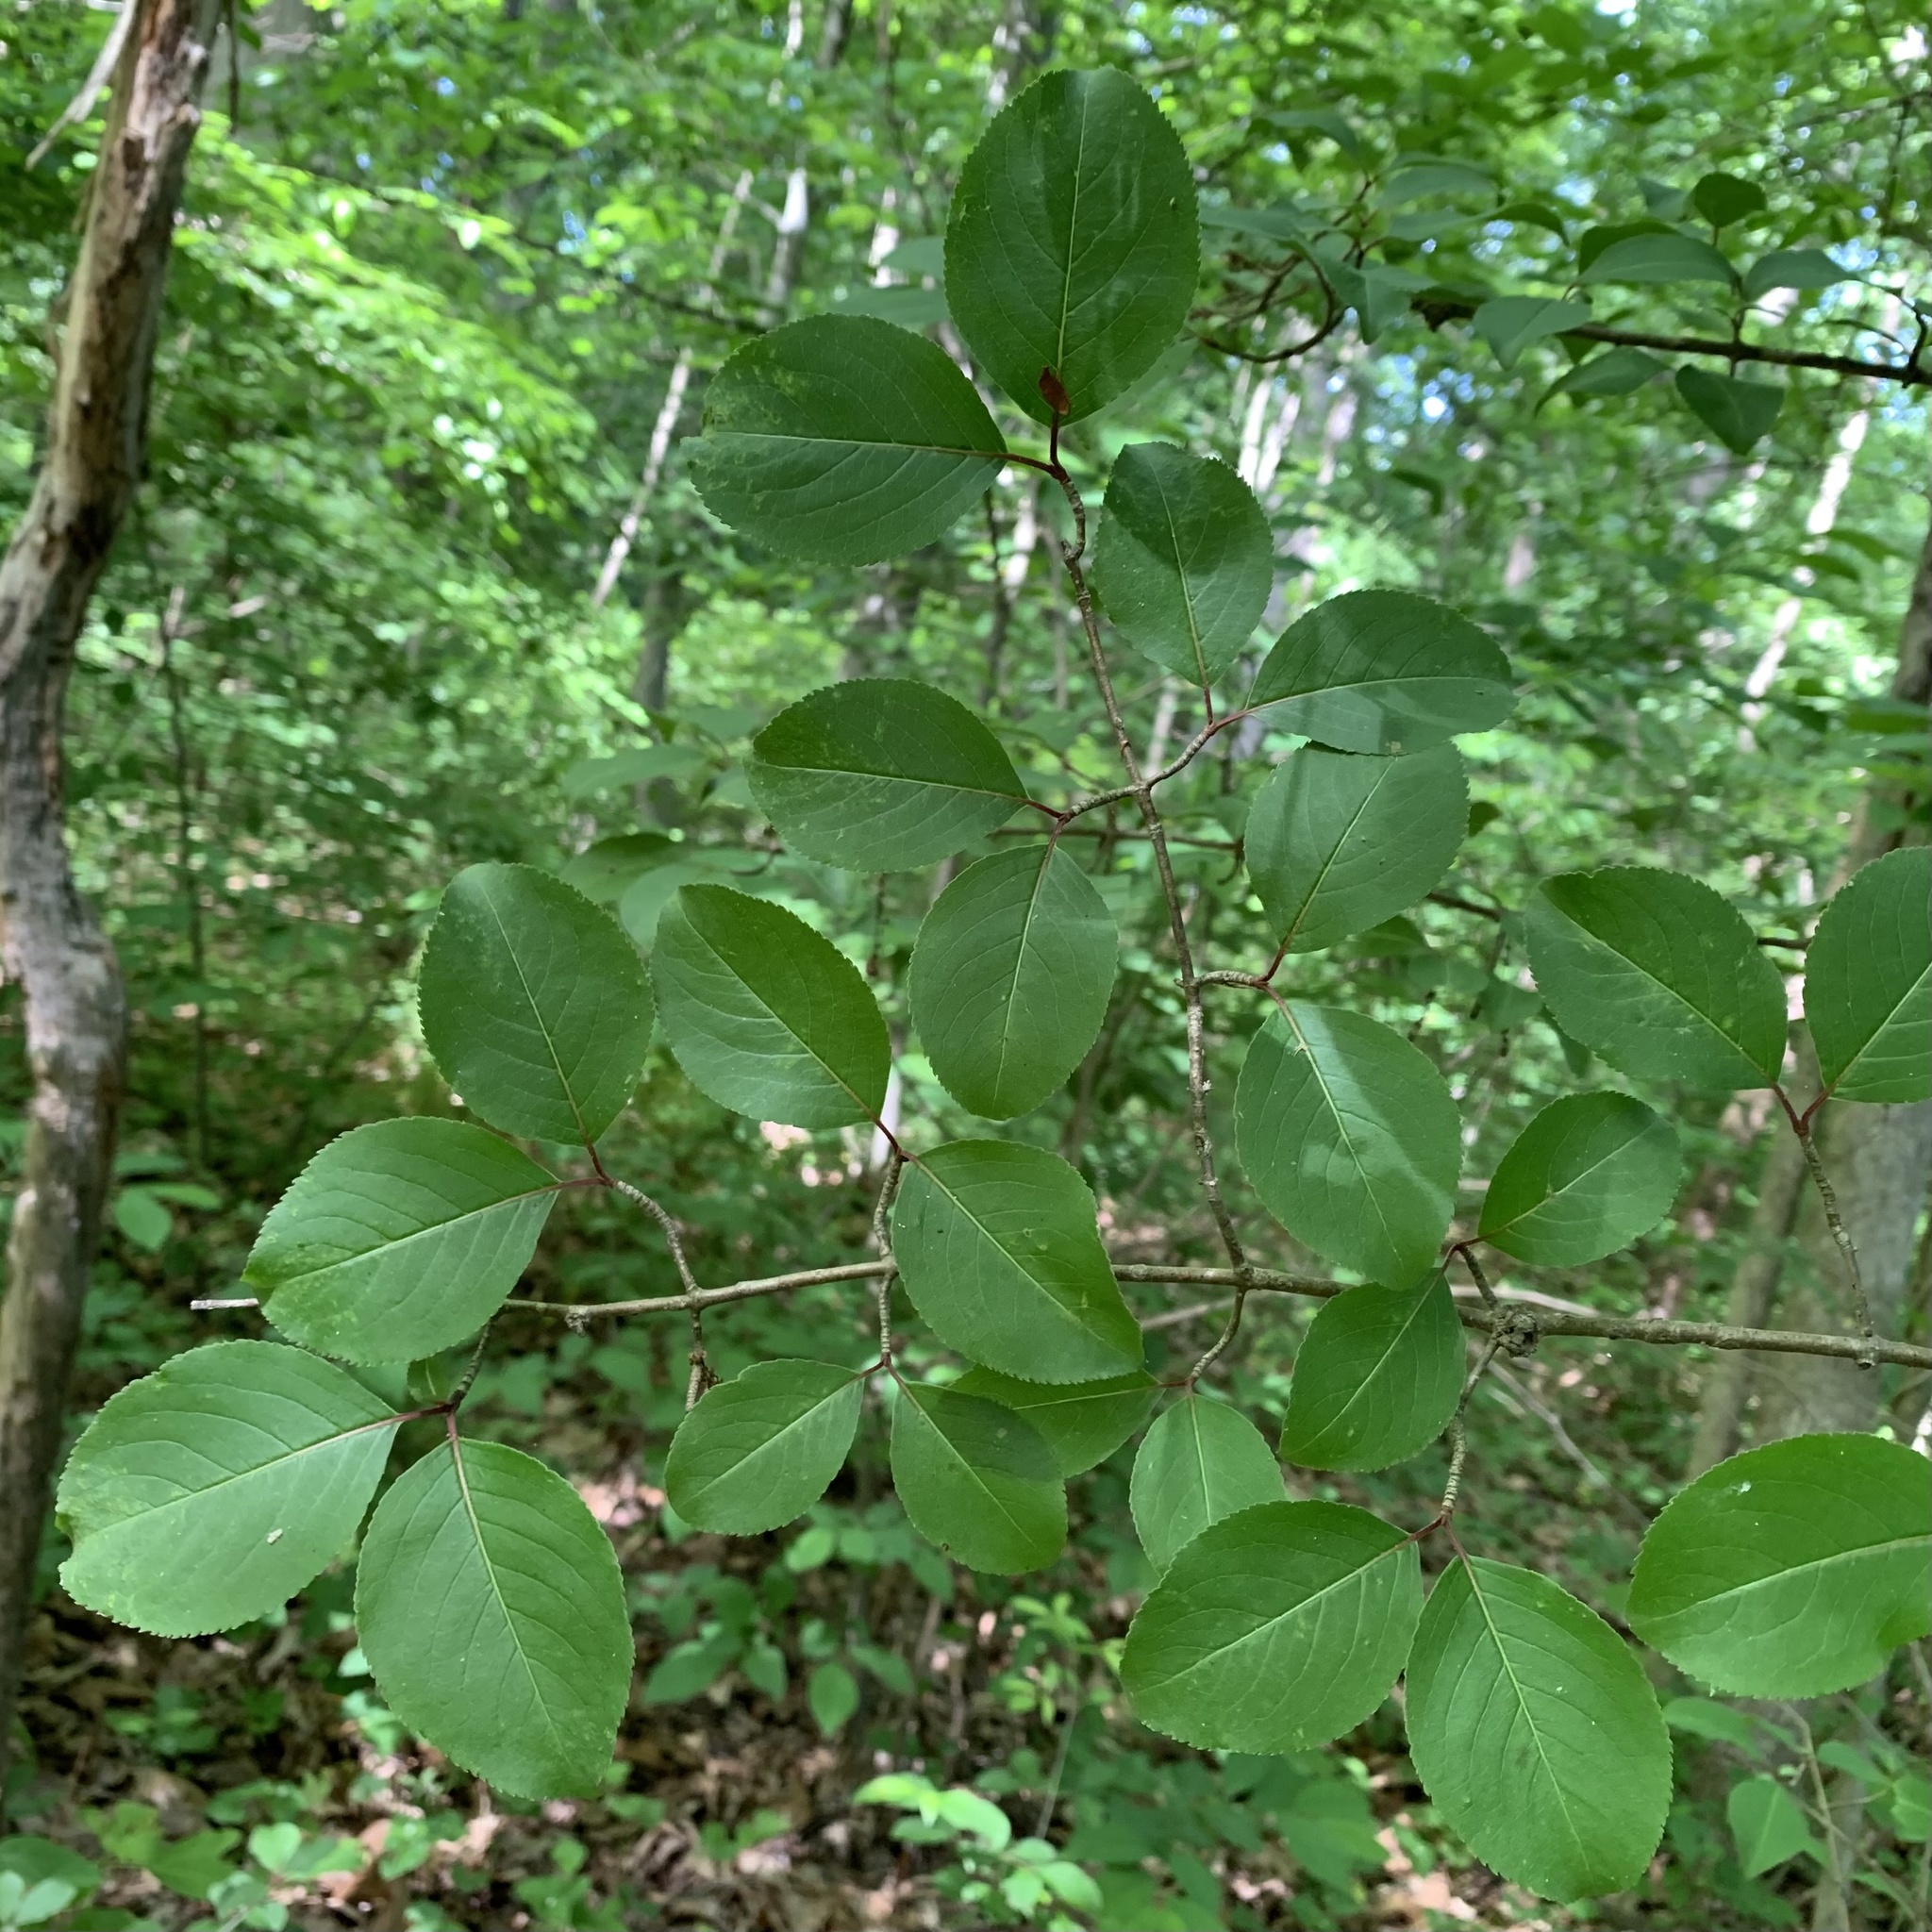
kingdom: Plantae
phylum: Tracheophyta
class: Magnoliopsida
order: Dipsacales
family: Viburnaceae
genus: Viburnum
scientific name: Viburnum prunifolium
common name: Black haw
